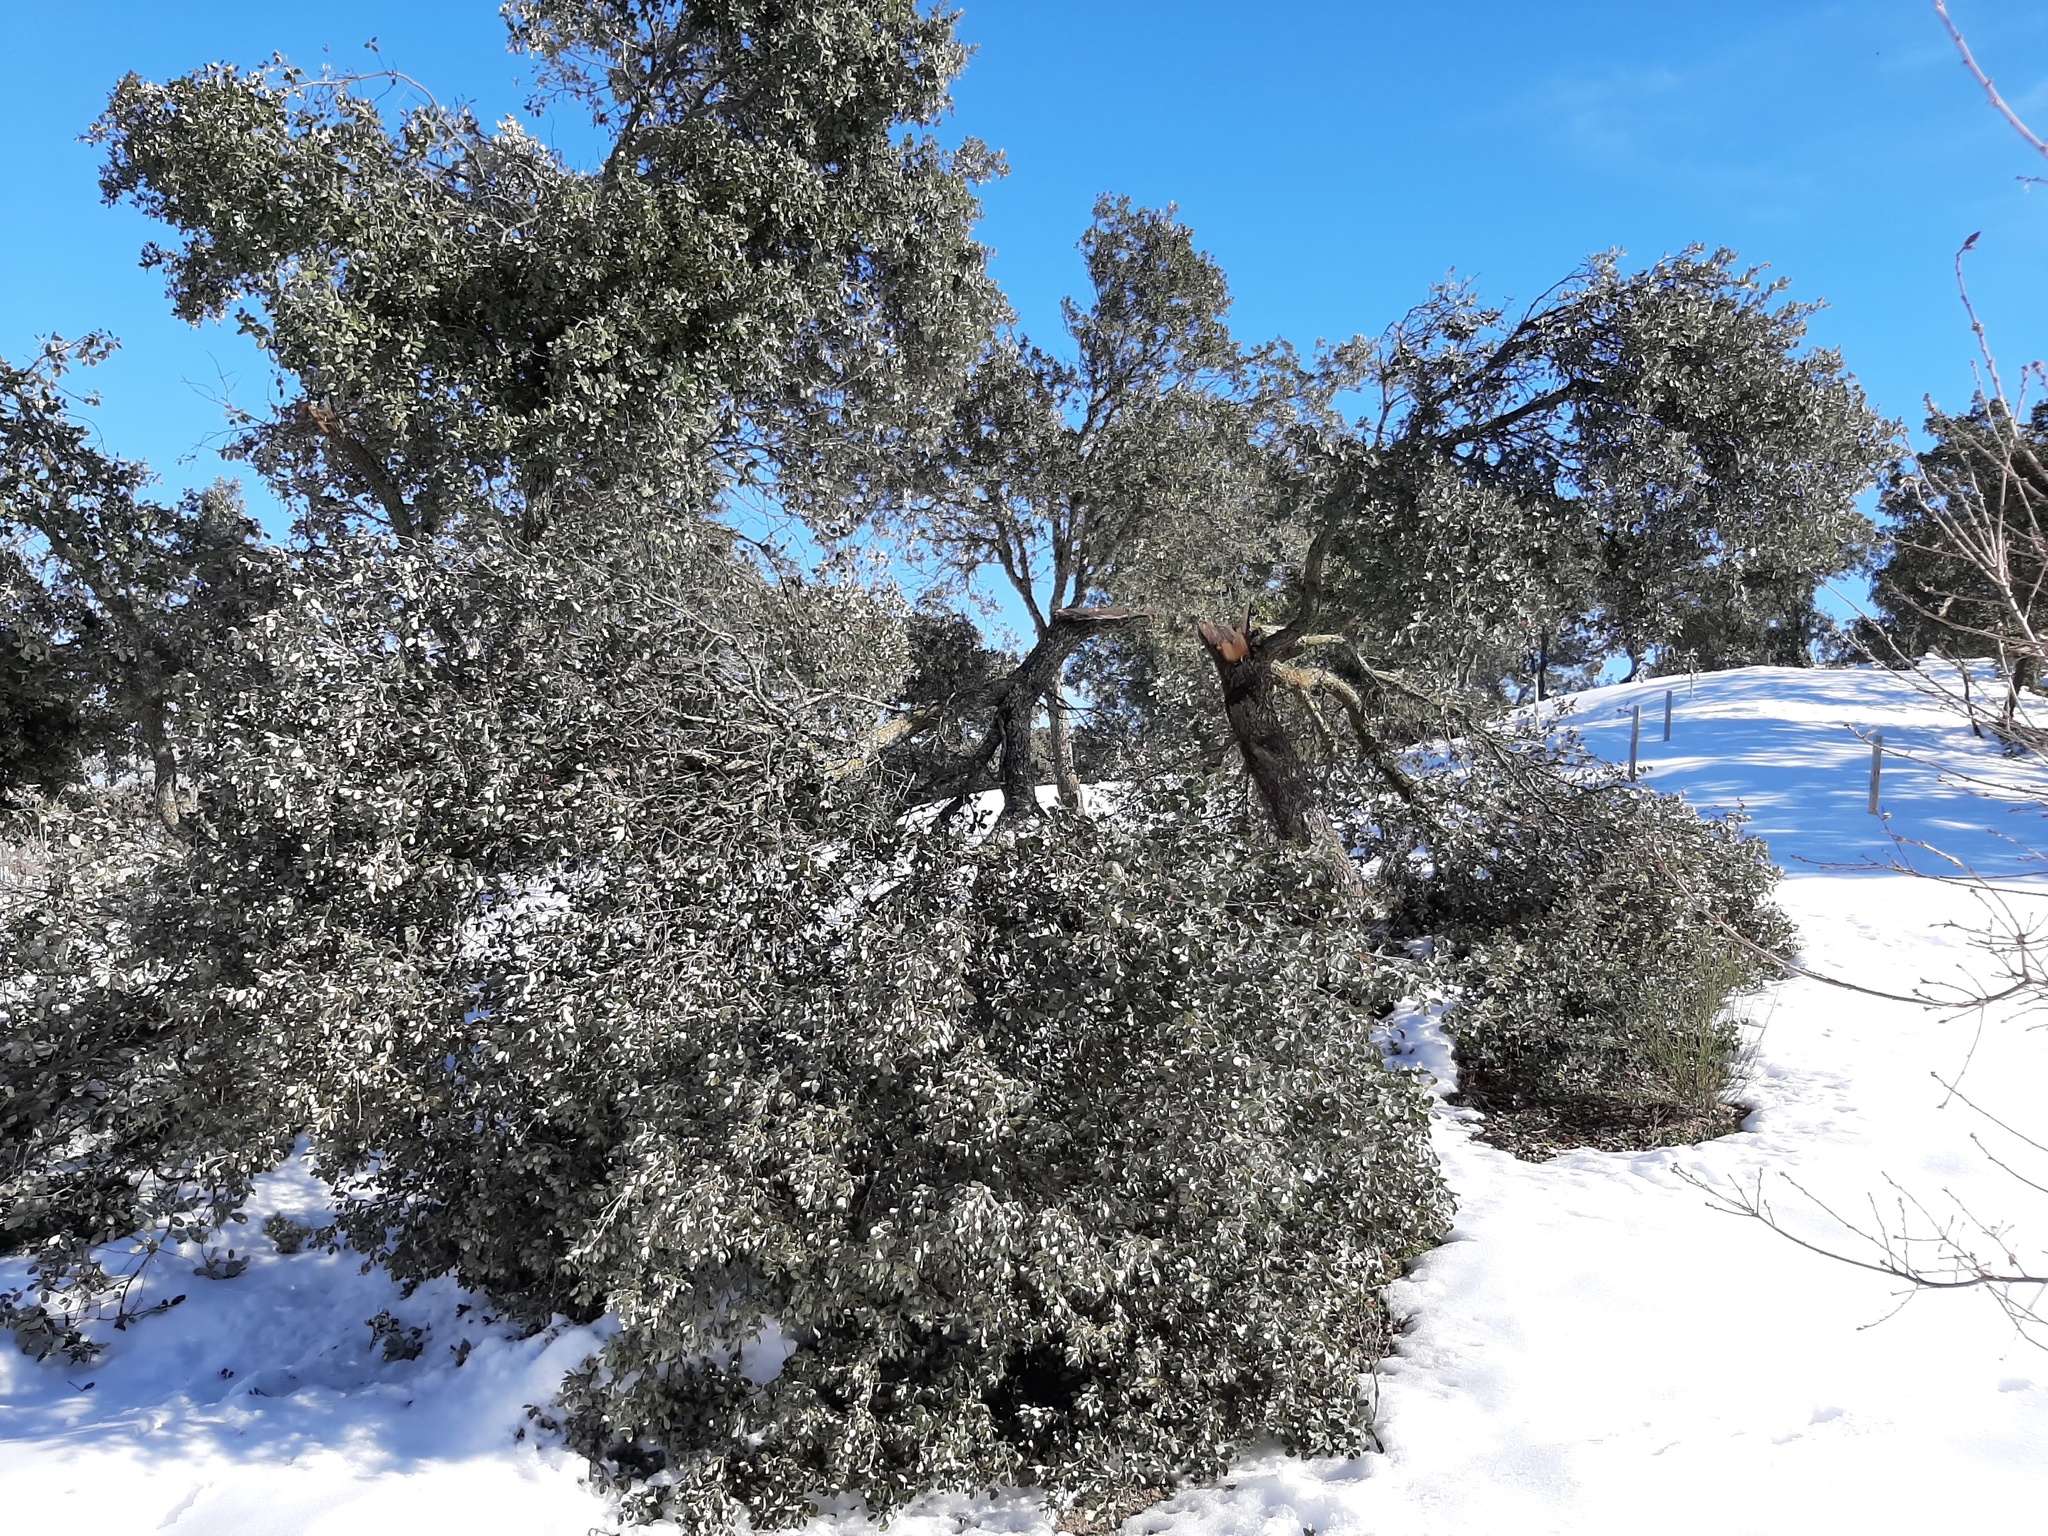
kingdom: Plantae
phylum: Tracheophyta
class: Magnoliopsida
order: Fagales
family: Fagaceae
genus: Quercus
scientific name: Quercus rotundifolia
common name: Holm oak
